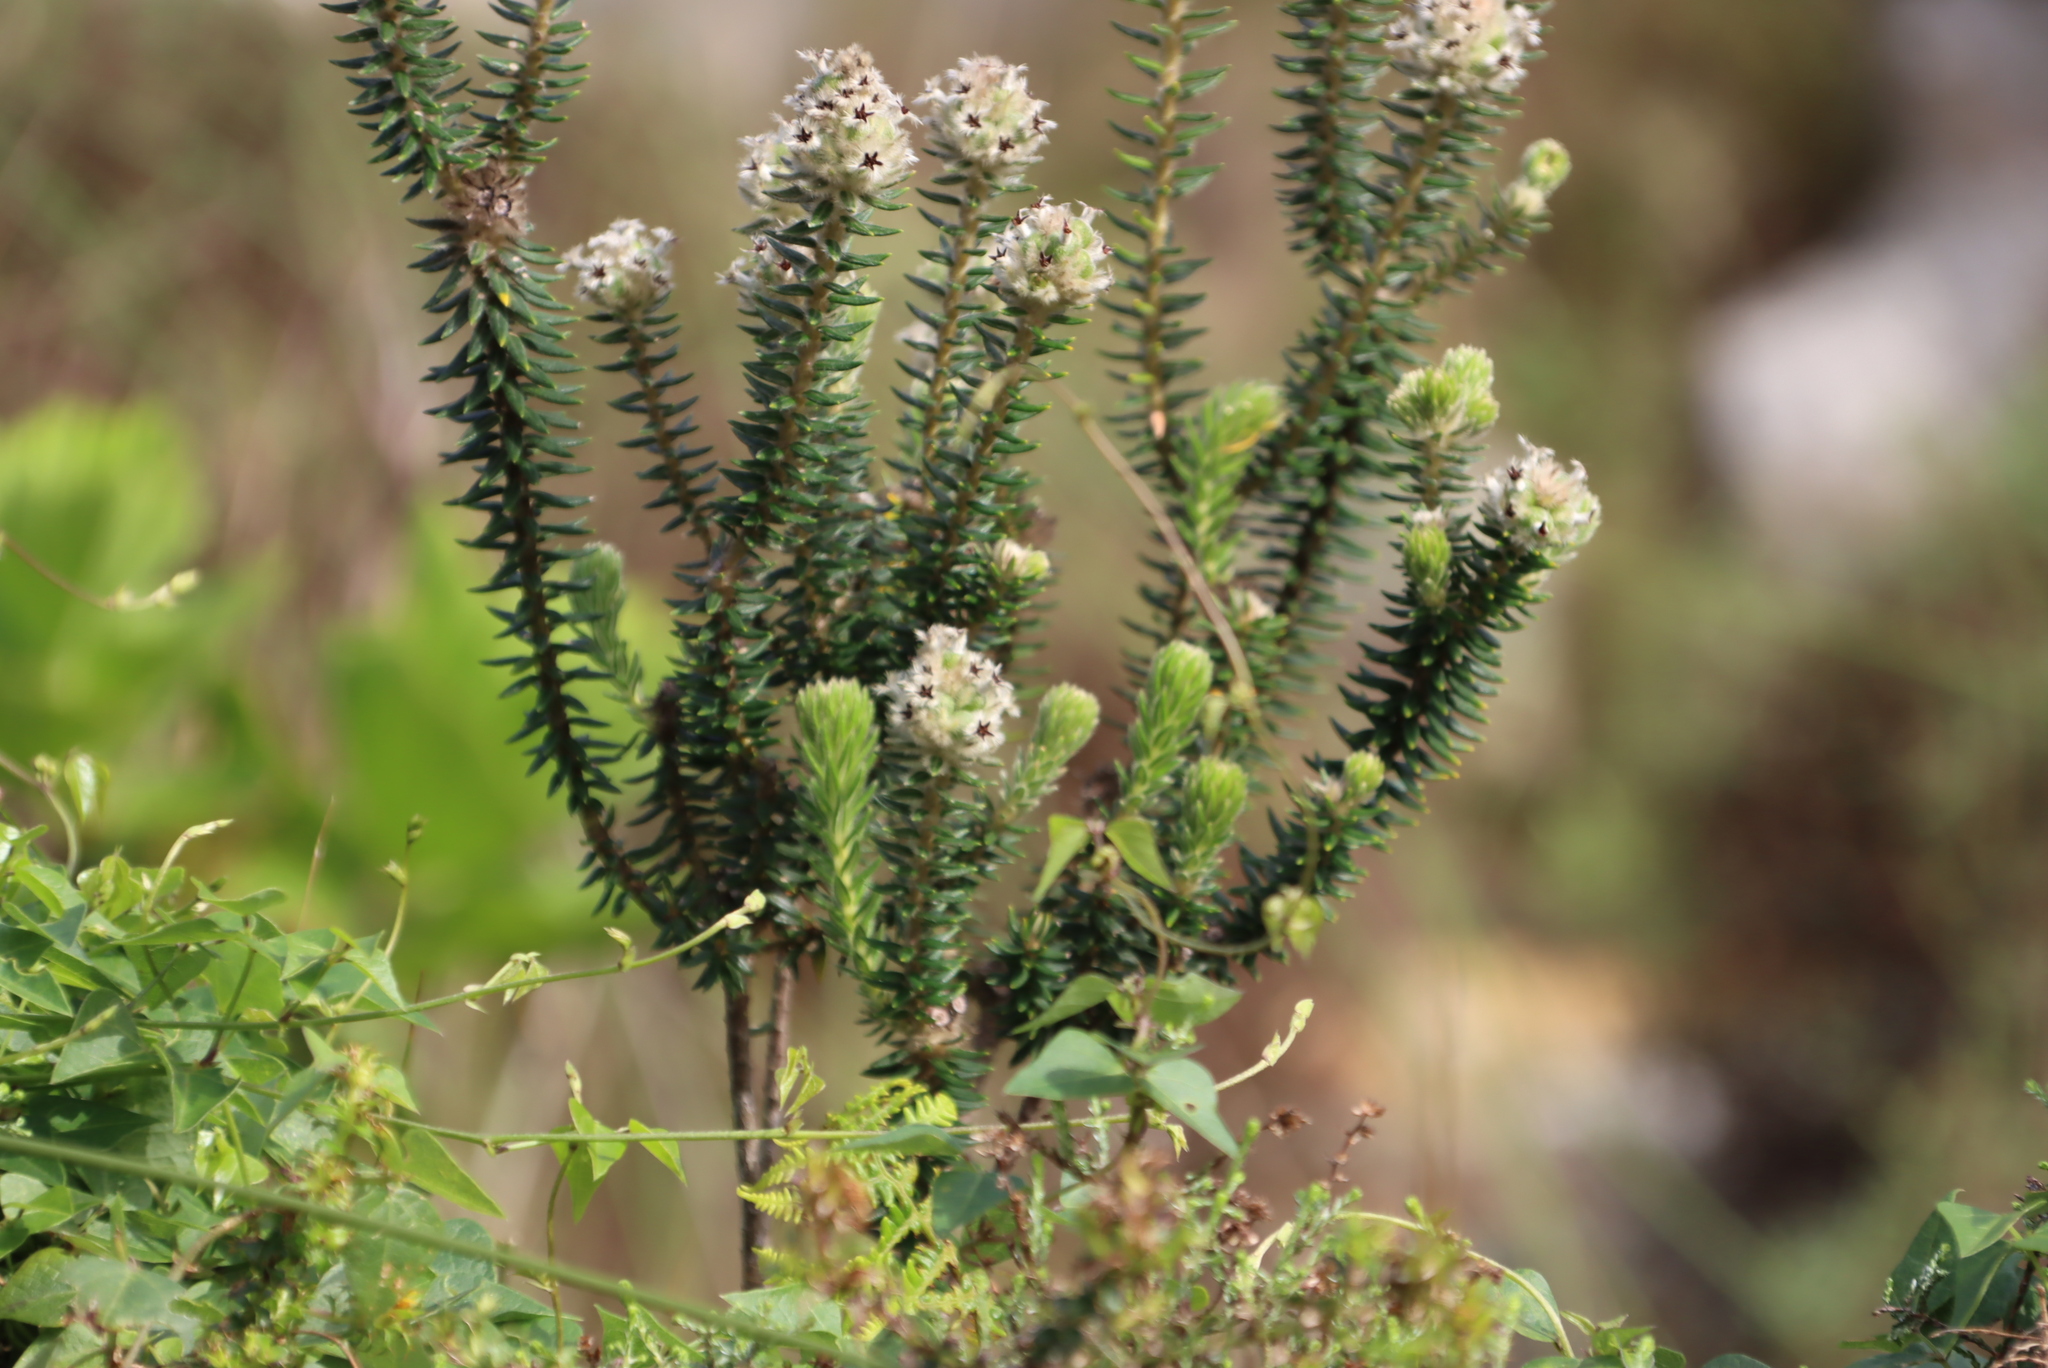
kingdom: Plantae
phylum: Tracheophyta
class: Magnoliopsida
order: Rosales
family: Rhamnaceae
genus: Phylica
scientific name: Phylica strigosa
